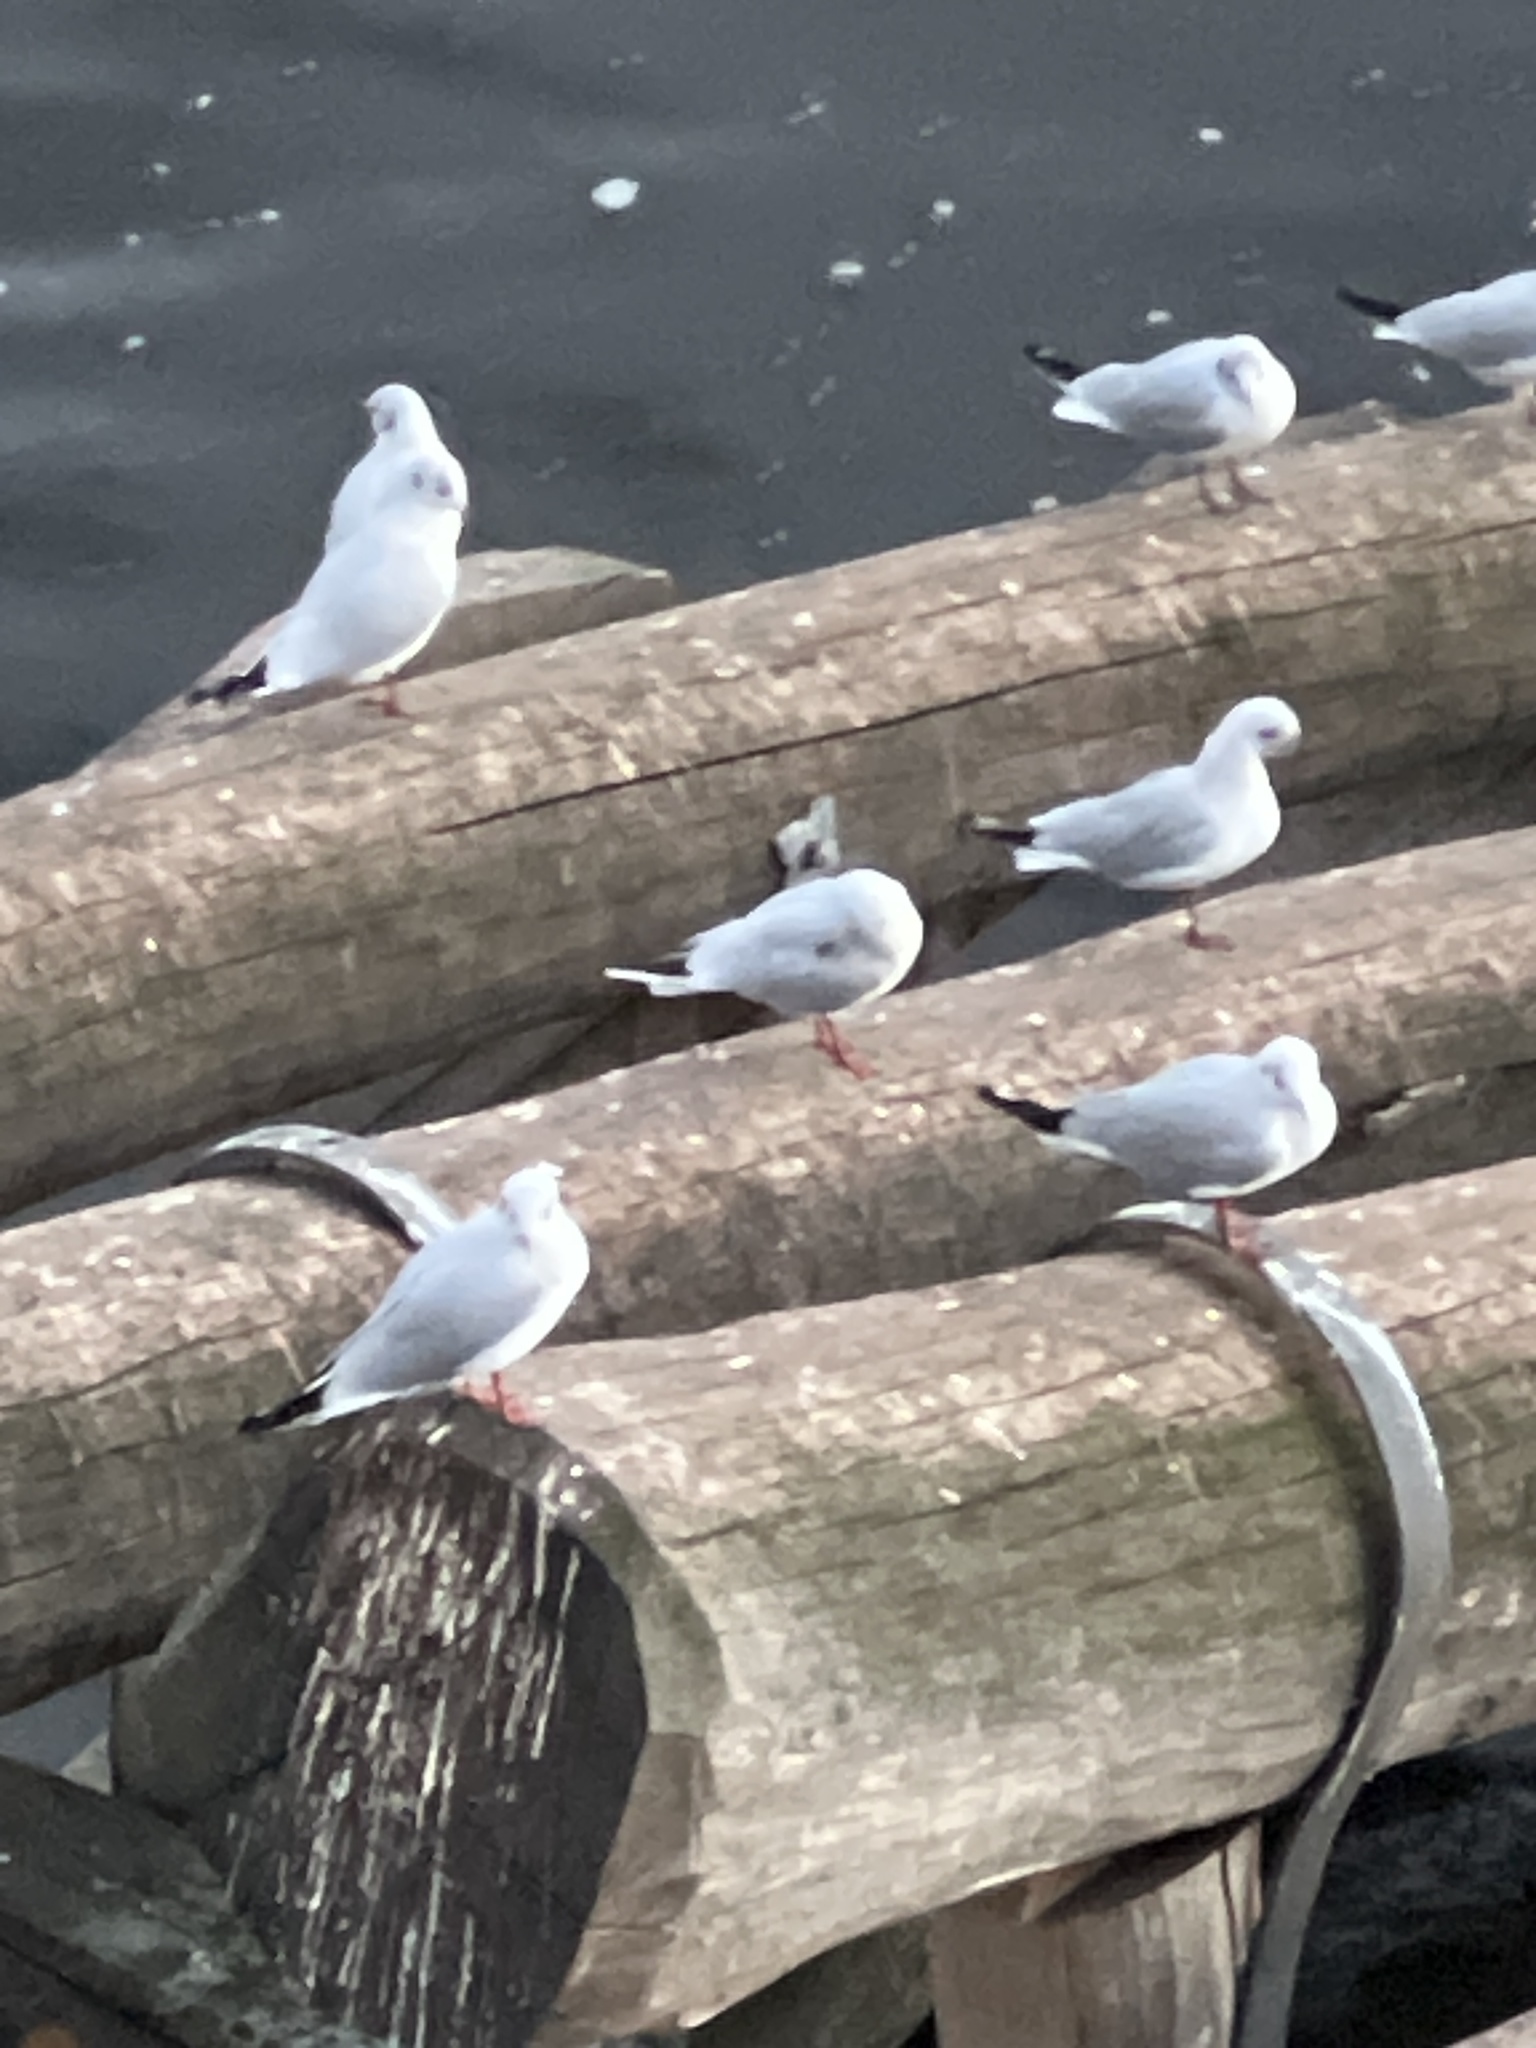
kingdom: Animalia
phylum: Chordata
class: Aves
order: Charadriiformes
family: Laridae
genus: Chroicocephalus
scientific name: Chroicocephalus ridibundus
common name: Black-headed gull
